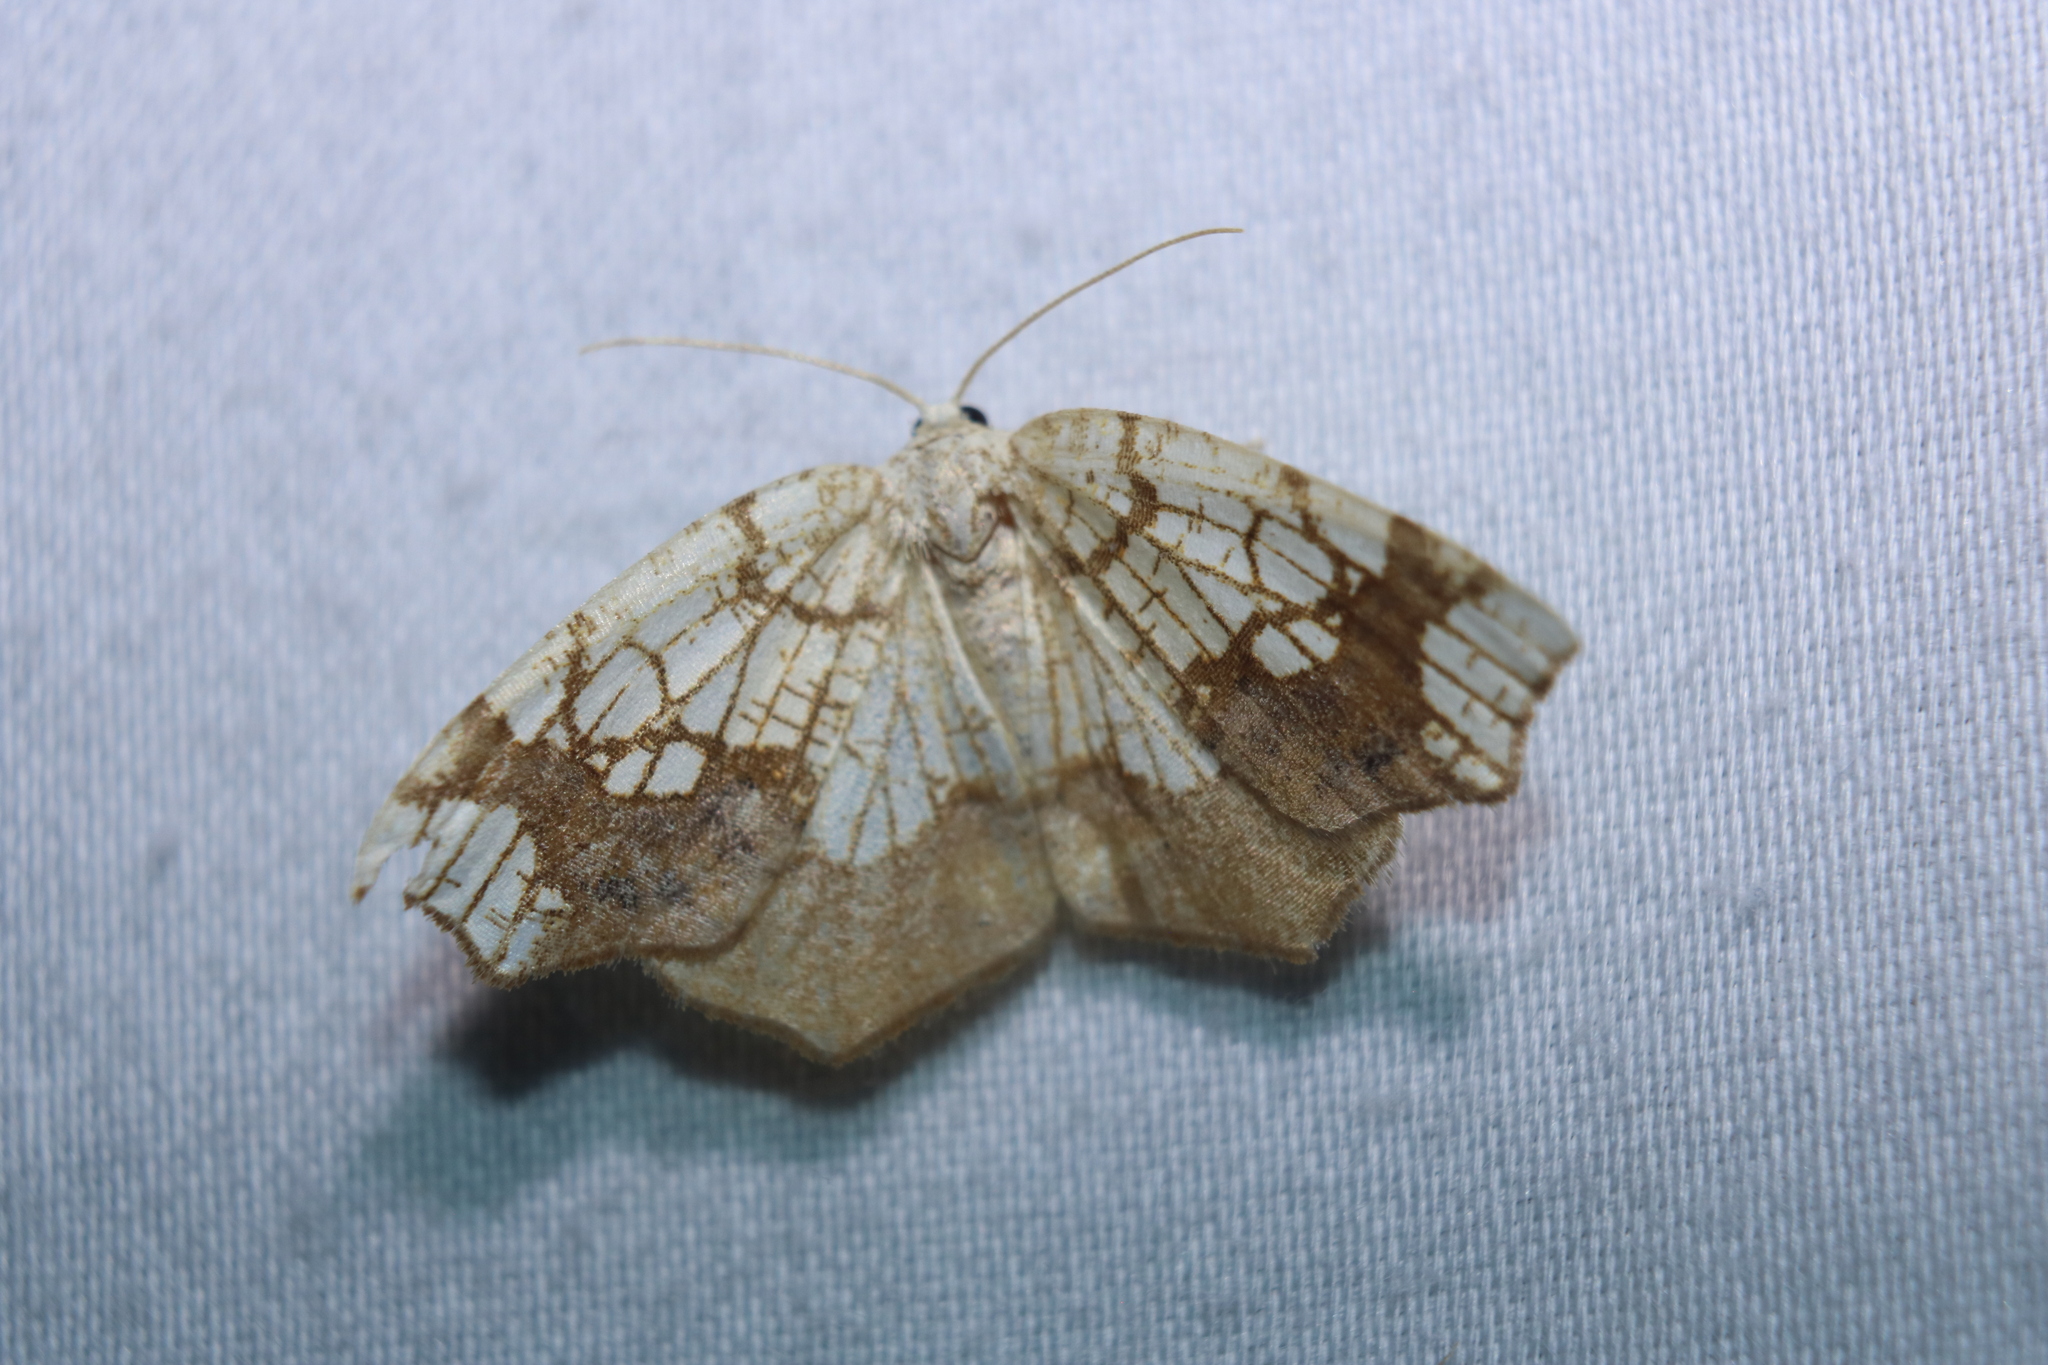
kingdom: Animalia
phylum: Arthropoda
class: Insecta
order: Lepidoptera
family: Geometridae
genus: Nematocampa
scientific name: Nematocampa resistaria
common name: Horned spanworm moth
